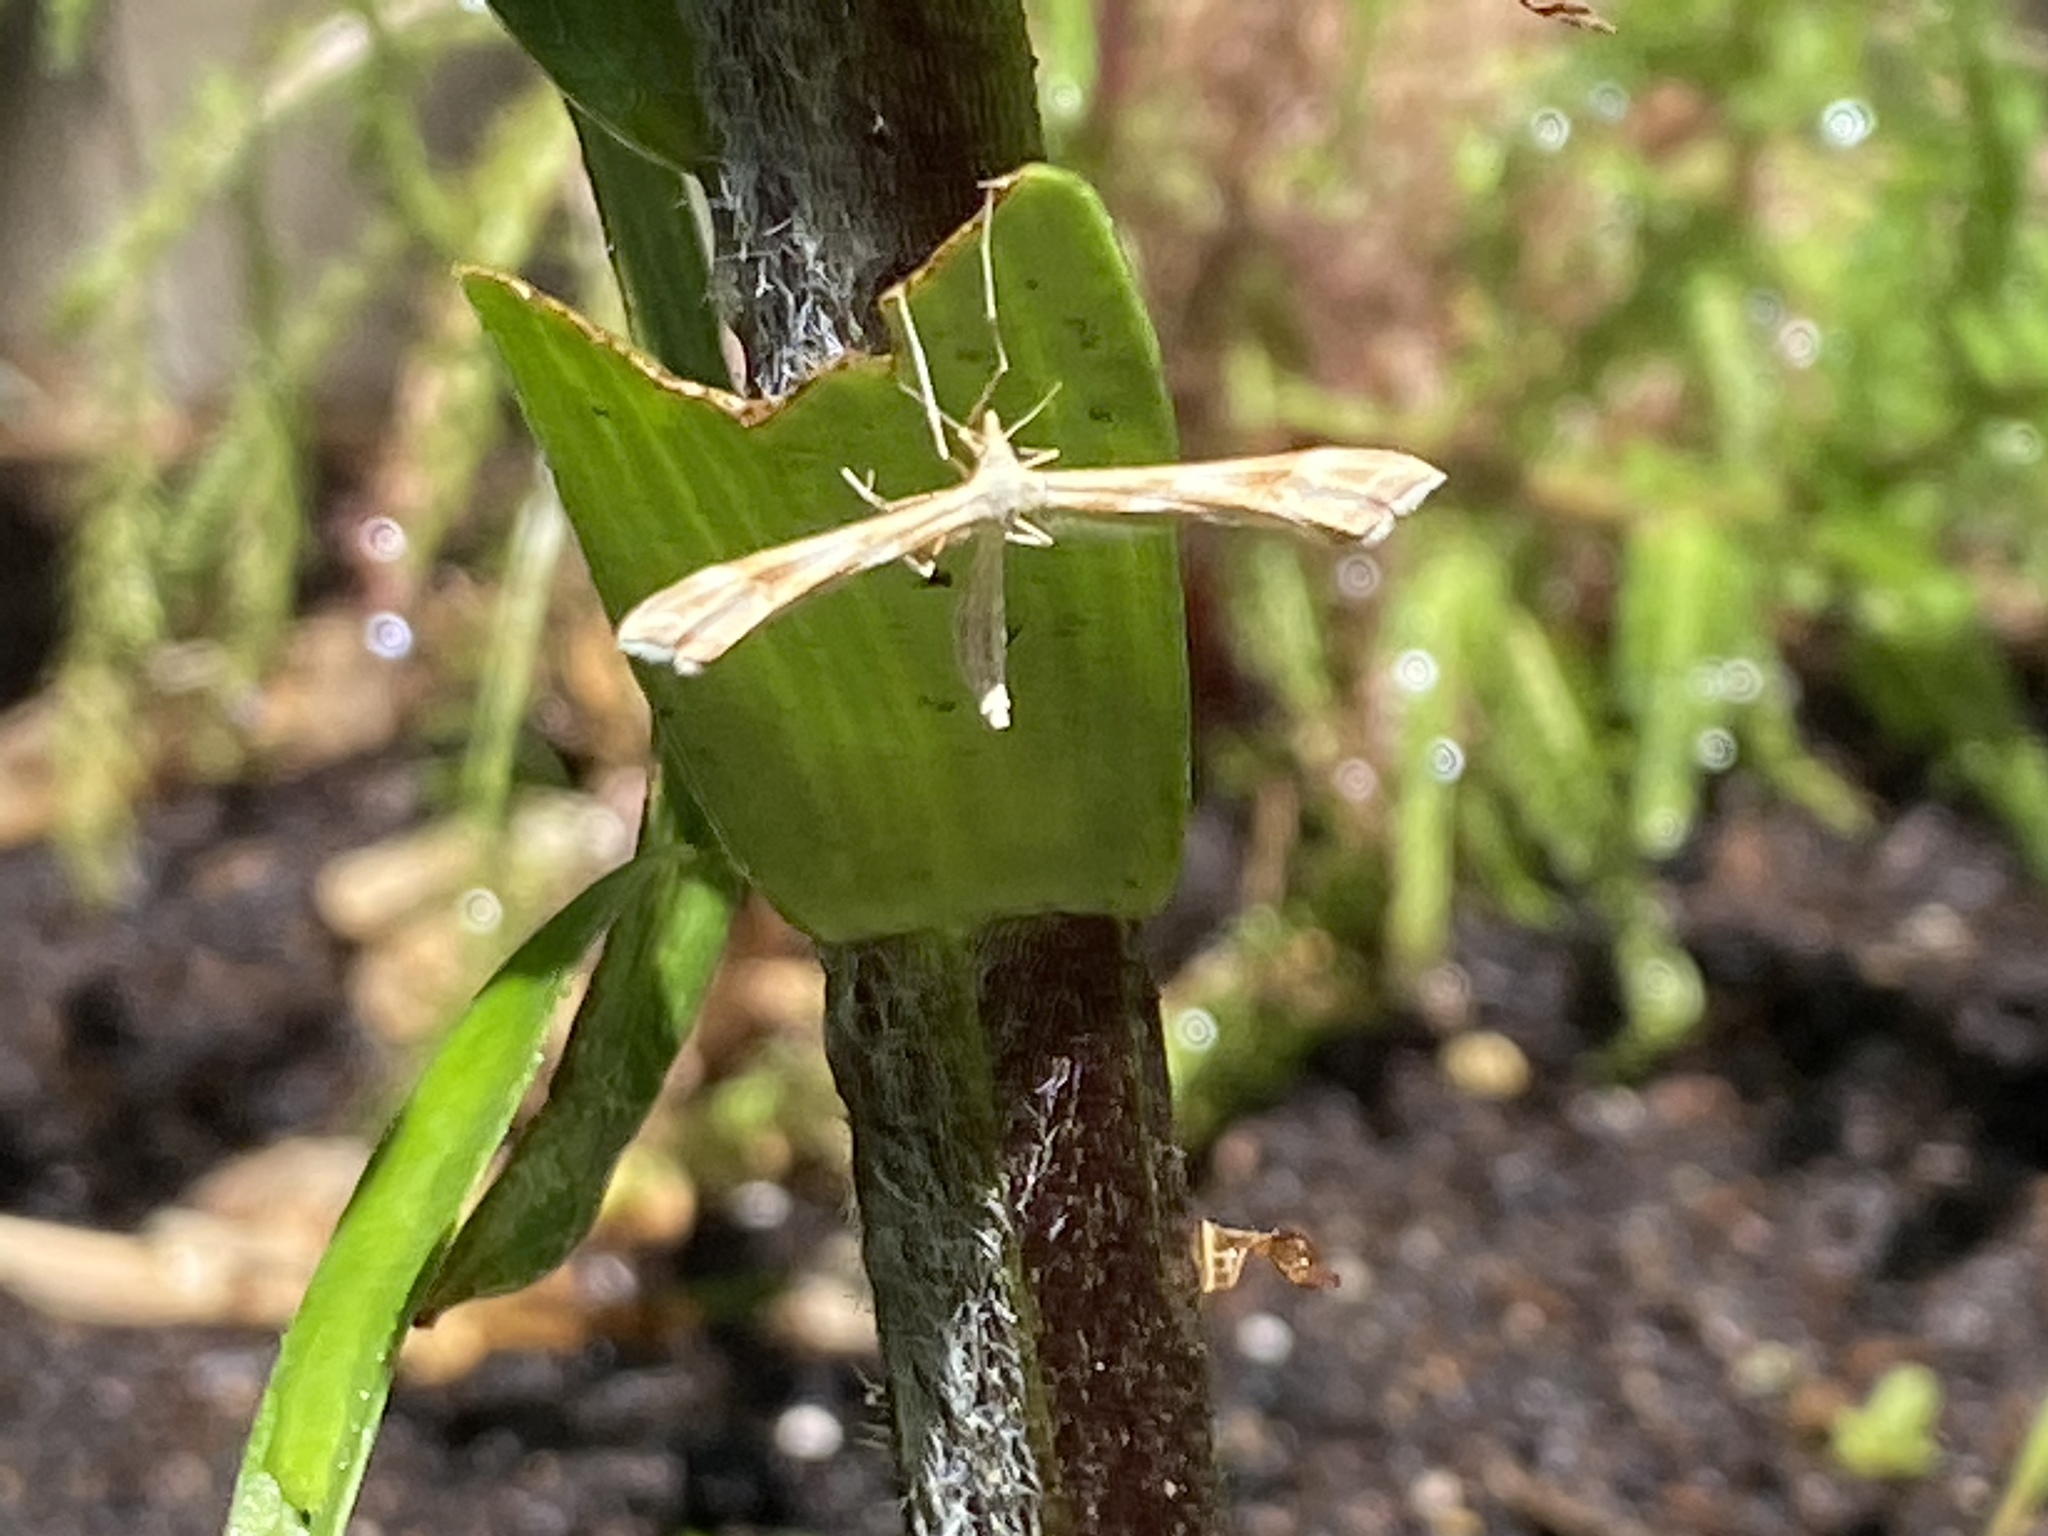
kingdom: Animalia
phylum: Arthropoda
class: Insecta
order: Lepidoptera
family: Pterophoridae
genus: Gillmeria
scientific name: Gillmeria pallidactyla
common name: Yarrow plume
